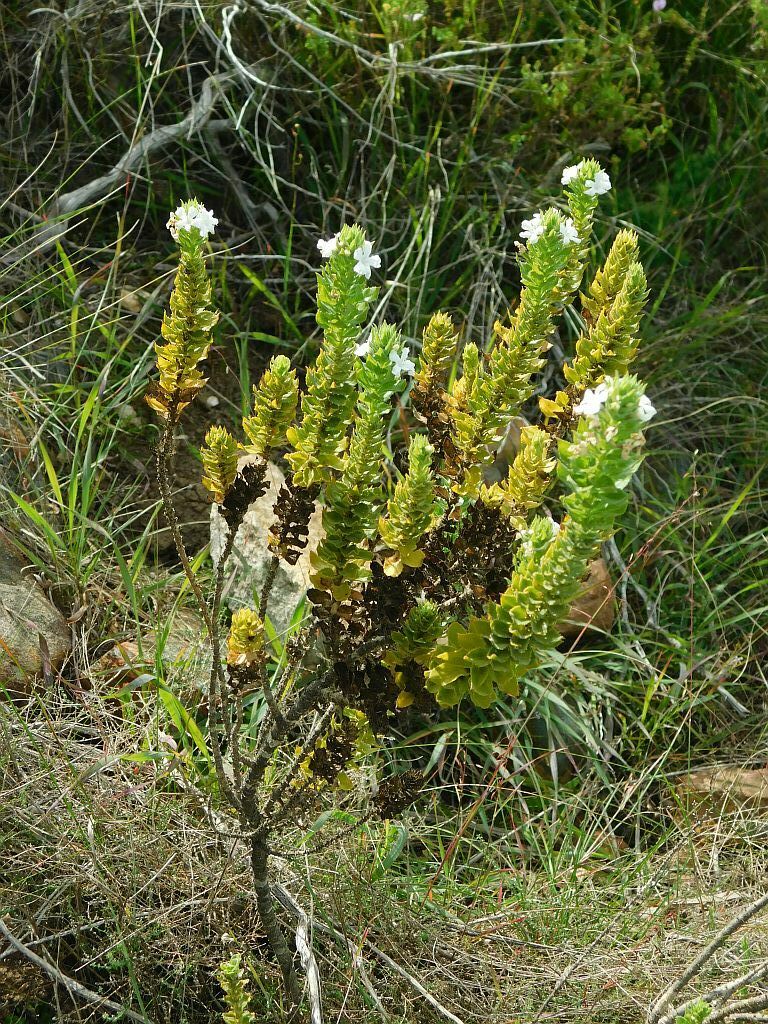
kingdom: Plantae
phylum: Tracheophyta
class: Magnoliopsida
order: Lamiales
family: Scrophulariaceae
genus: Oftia
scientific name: Oftia africana
